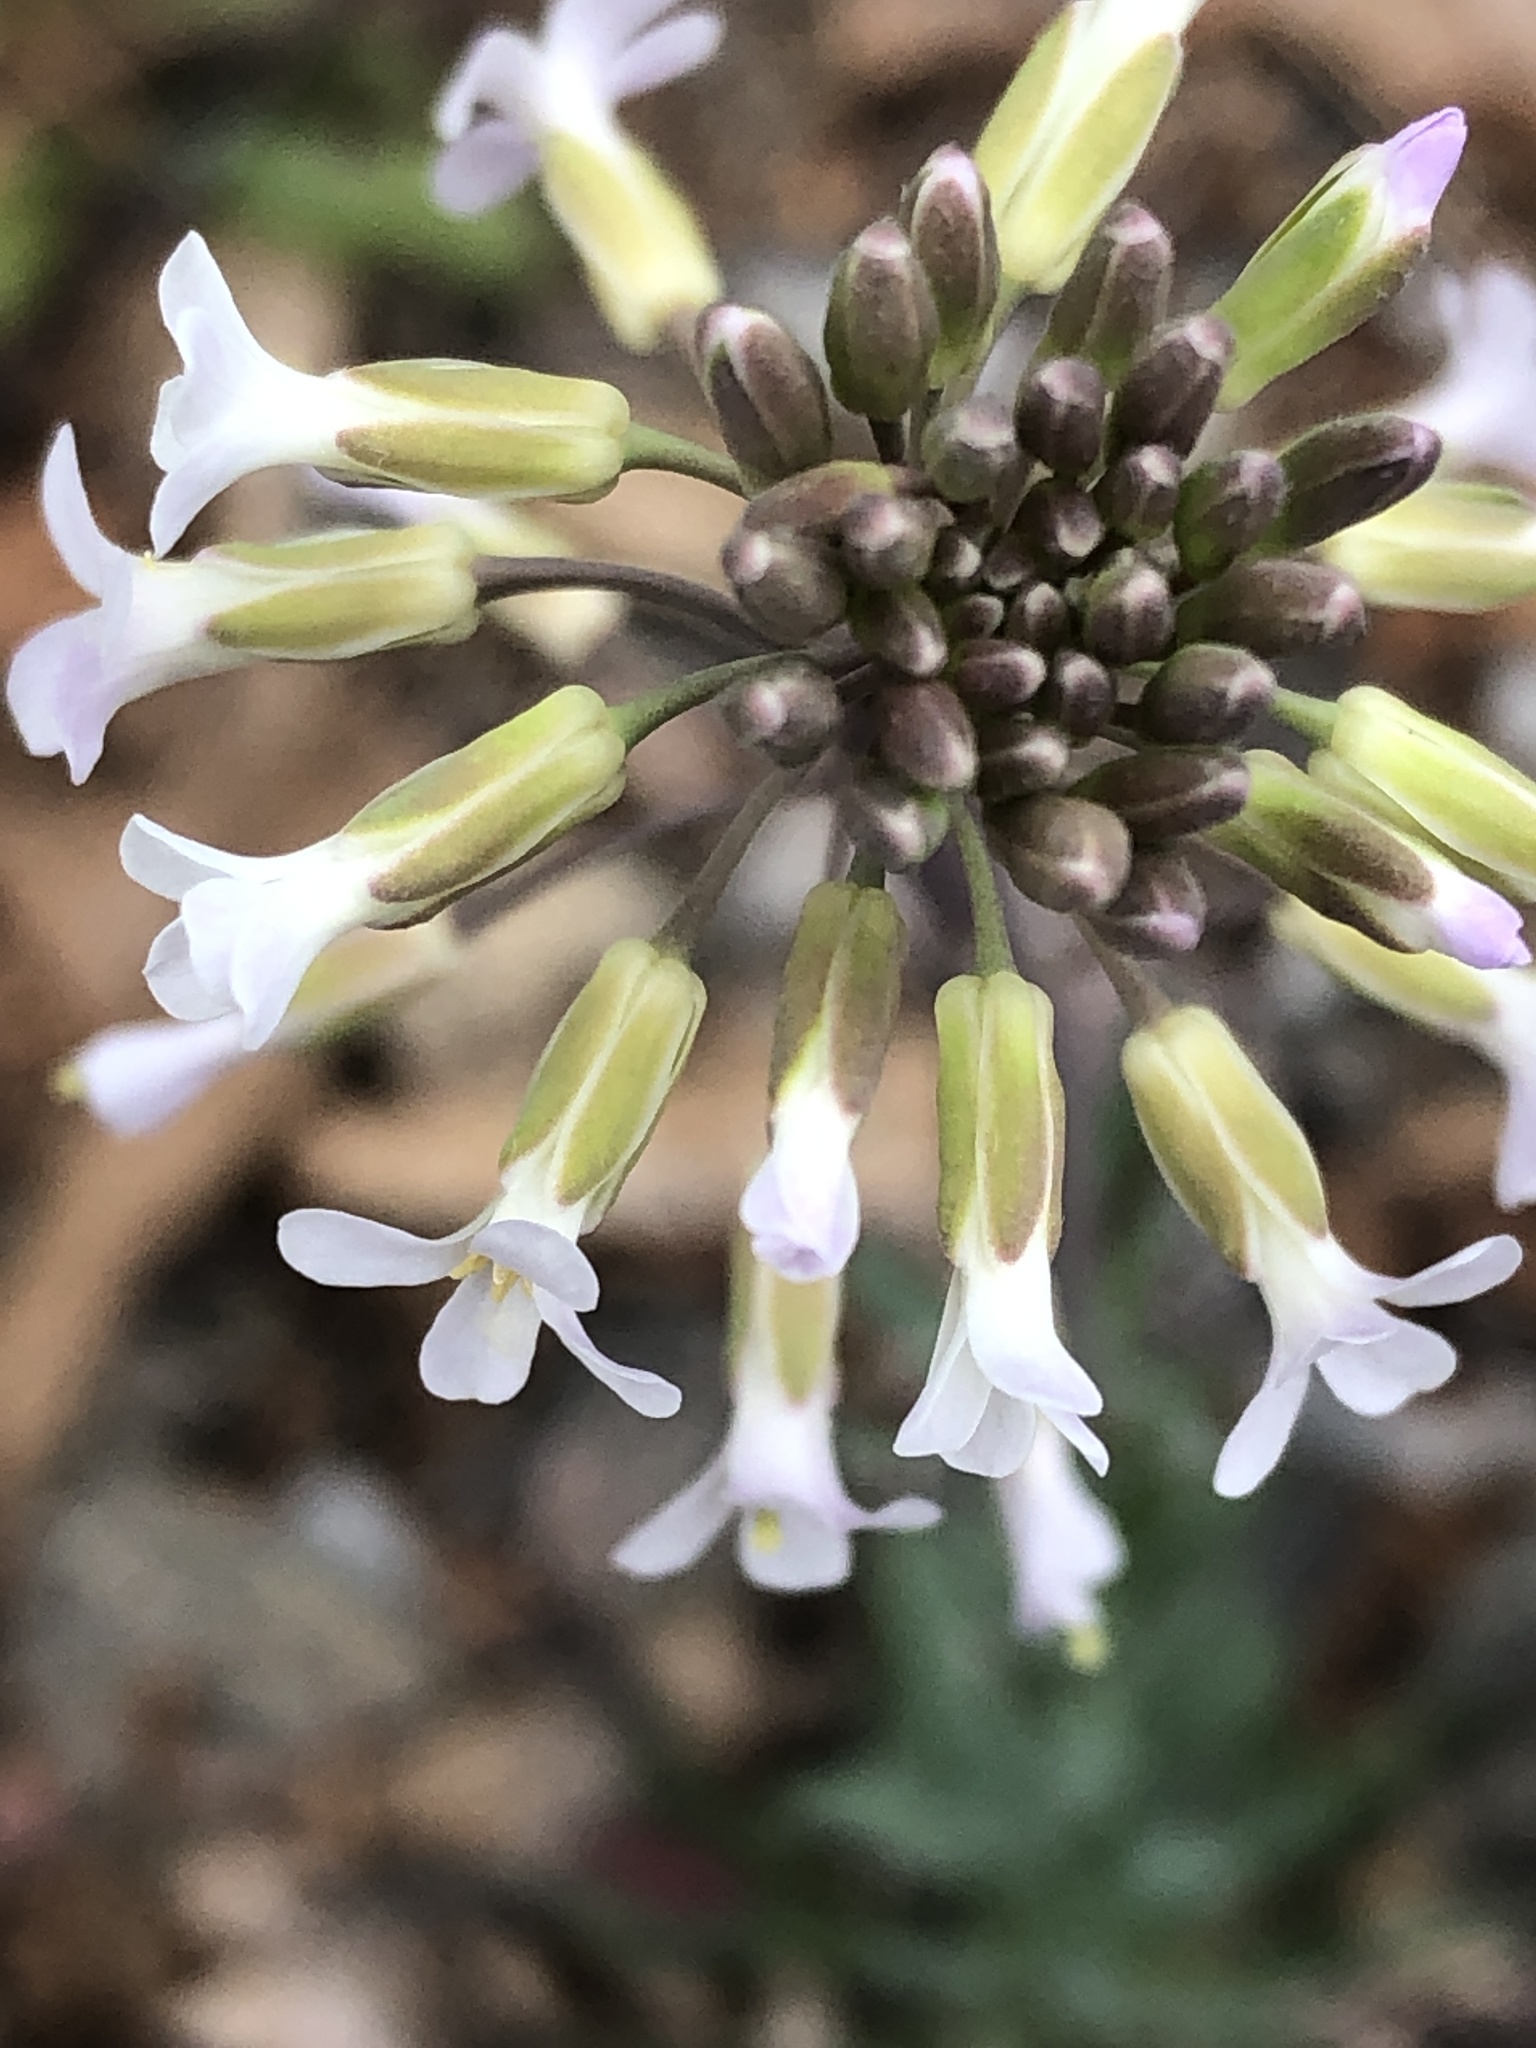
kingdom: Plantae
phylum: Tracheophyta
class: Magnoliopsida
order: Brassicales
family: Brassicaceae
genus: Boechera
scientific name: Boechera grahamii
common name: Graham's rockcress
